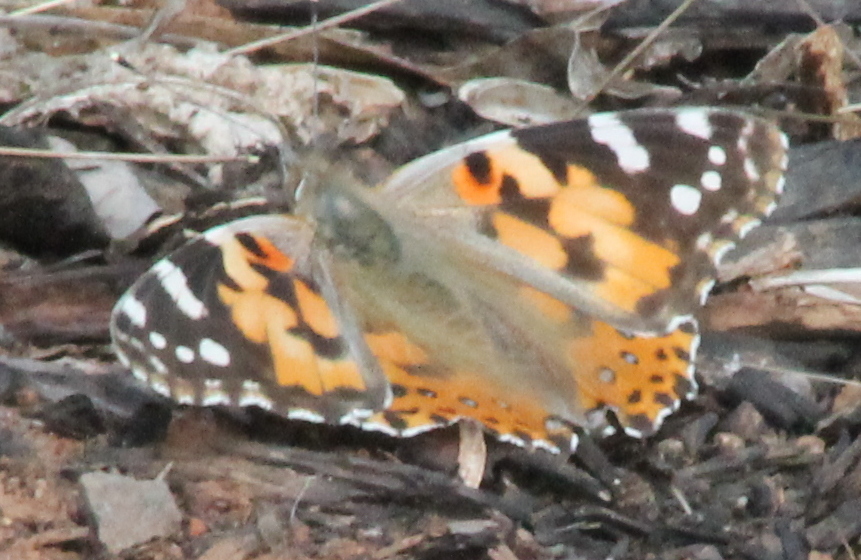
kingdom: Animalia
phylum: Arthropoda
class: Insecta
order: Lepidoptera
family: Nymphalidae
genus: Vanessa
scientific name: Vanessa cardui
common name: Painted lady
